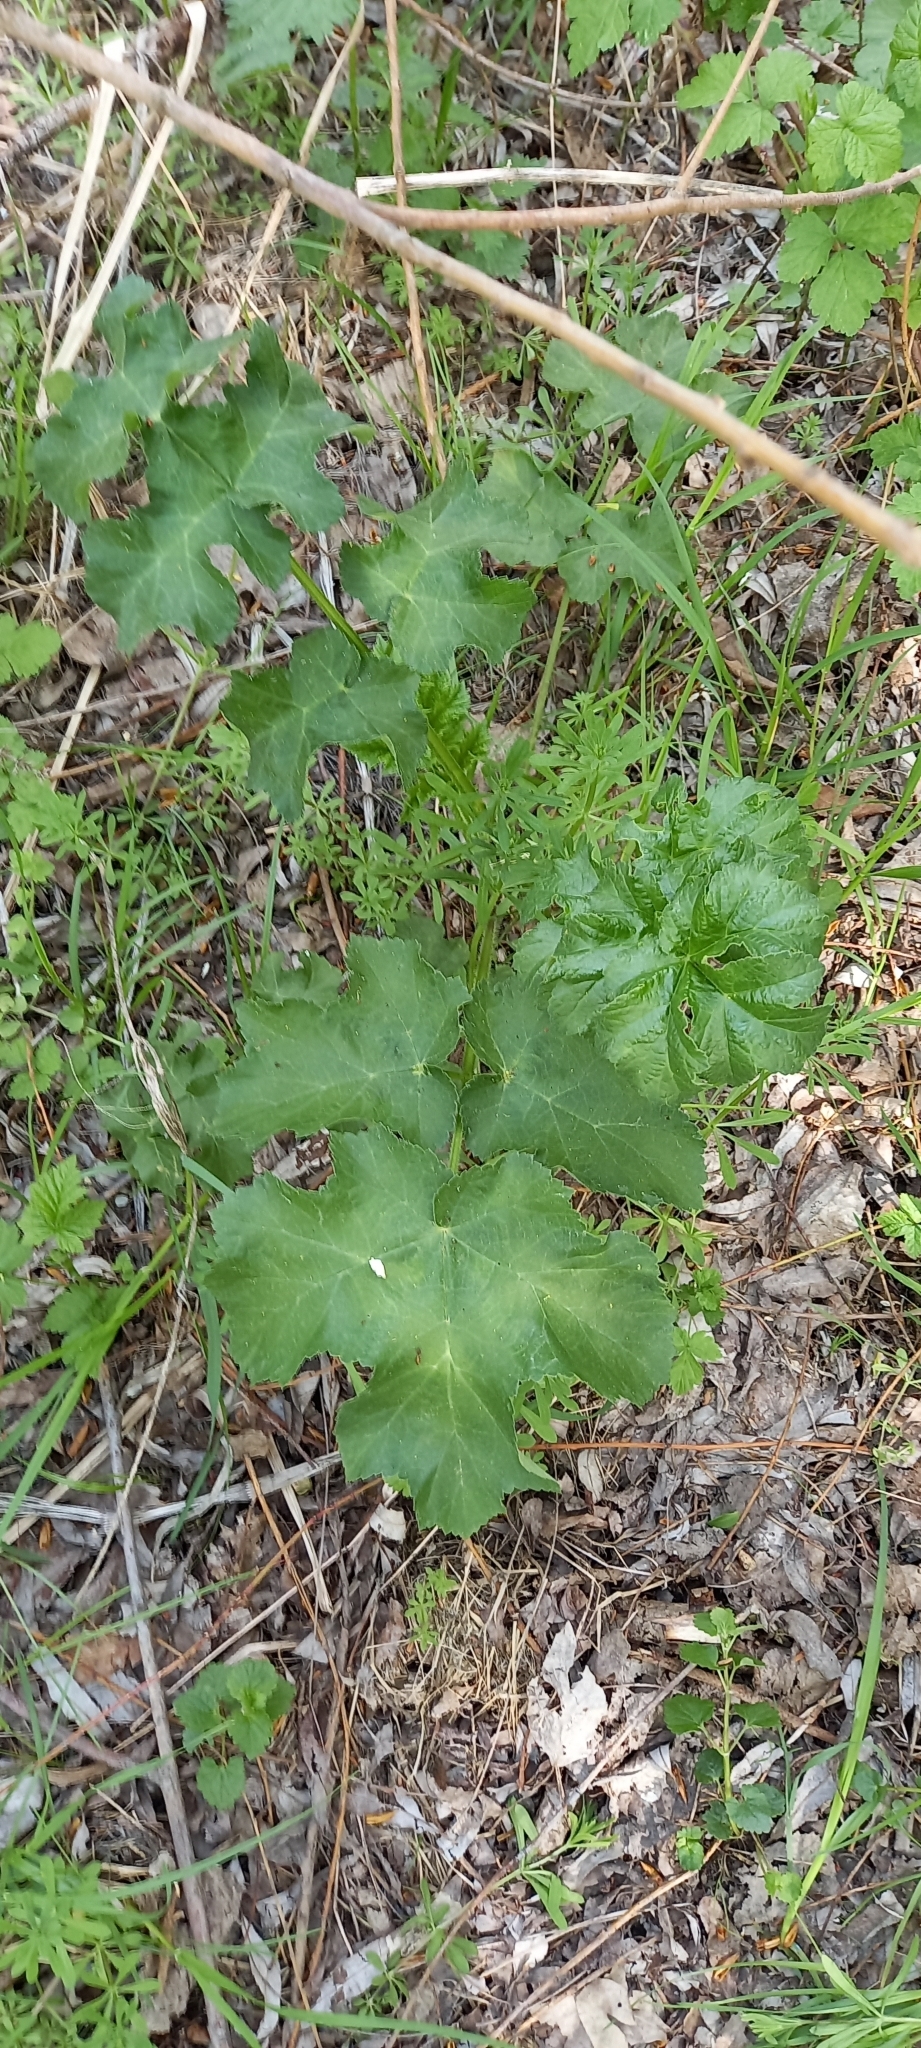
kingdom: Plantae
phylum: Tracheophyta
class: Magnoliopsida
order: Apiales
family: Apiaceae
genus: Heracleum
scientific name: Heracleum sosnowskyi
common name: Sosnowsky's hogweed
